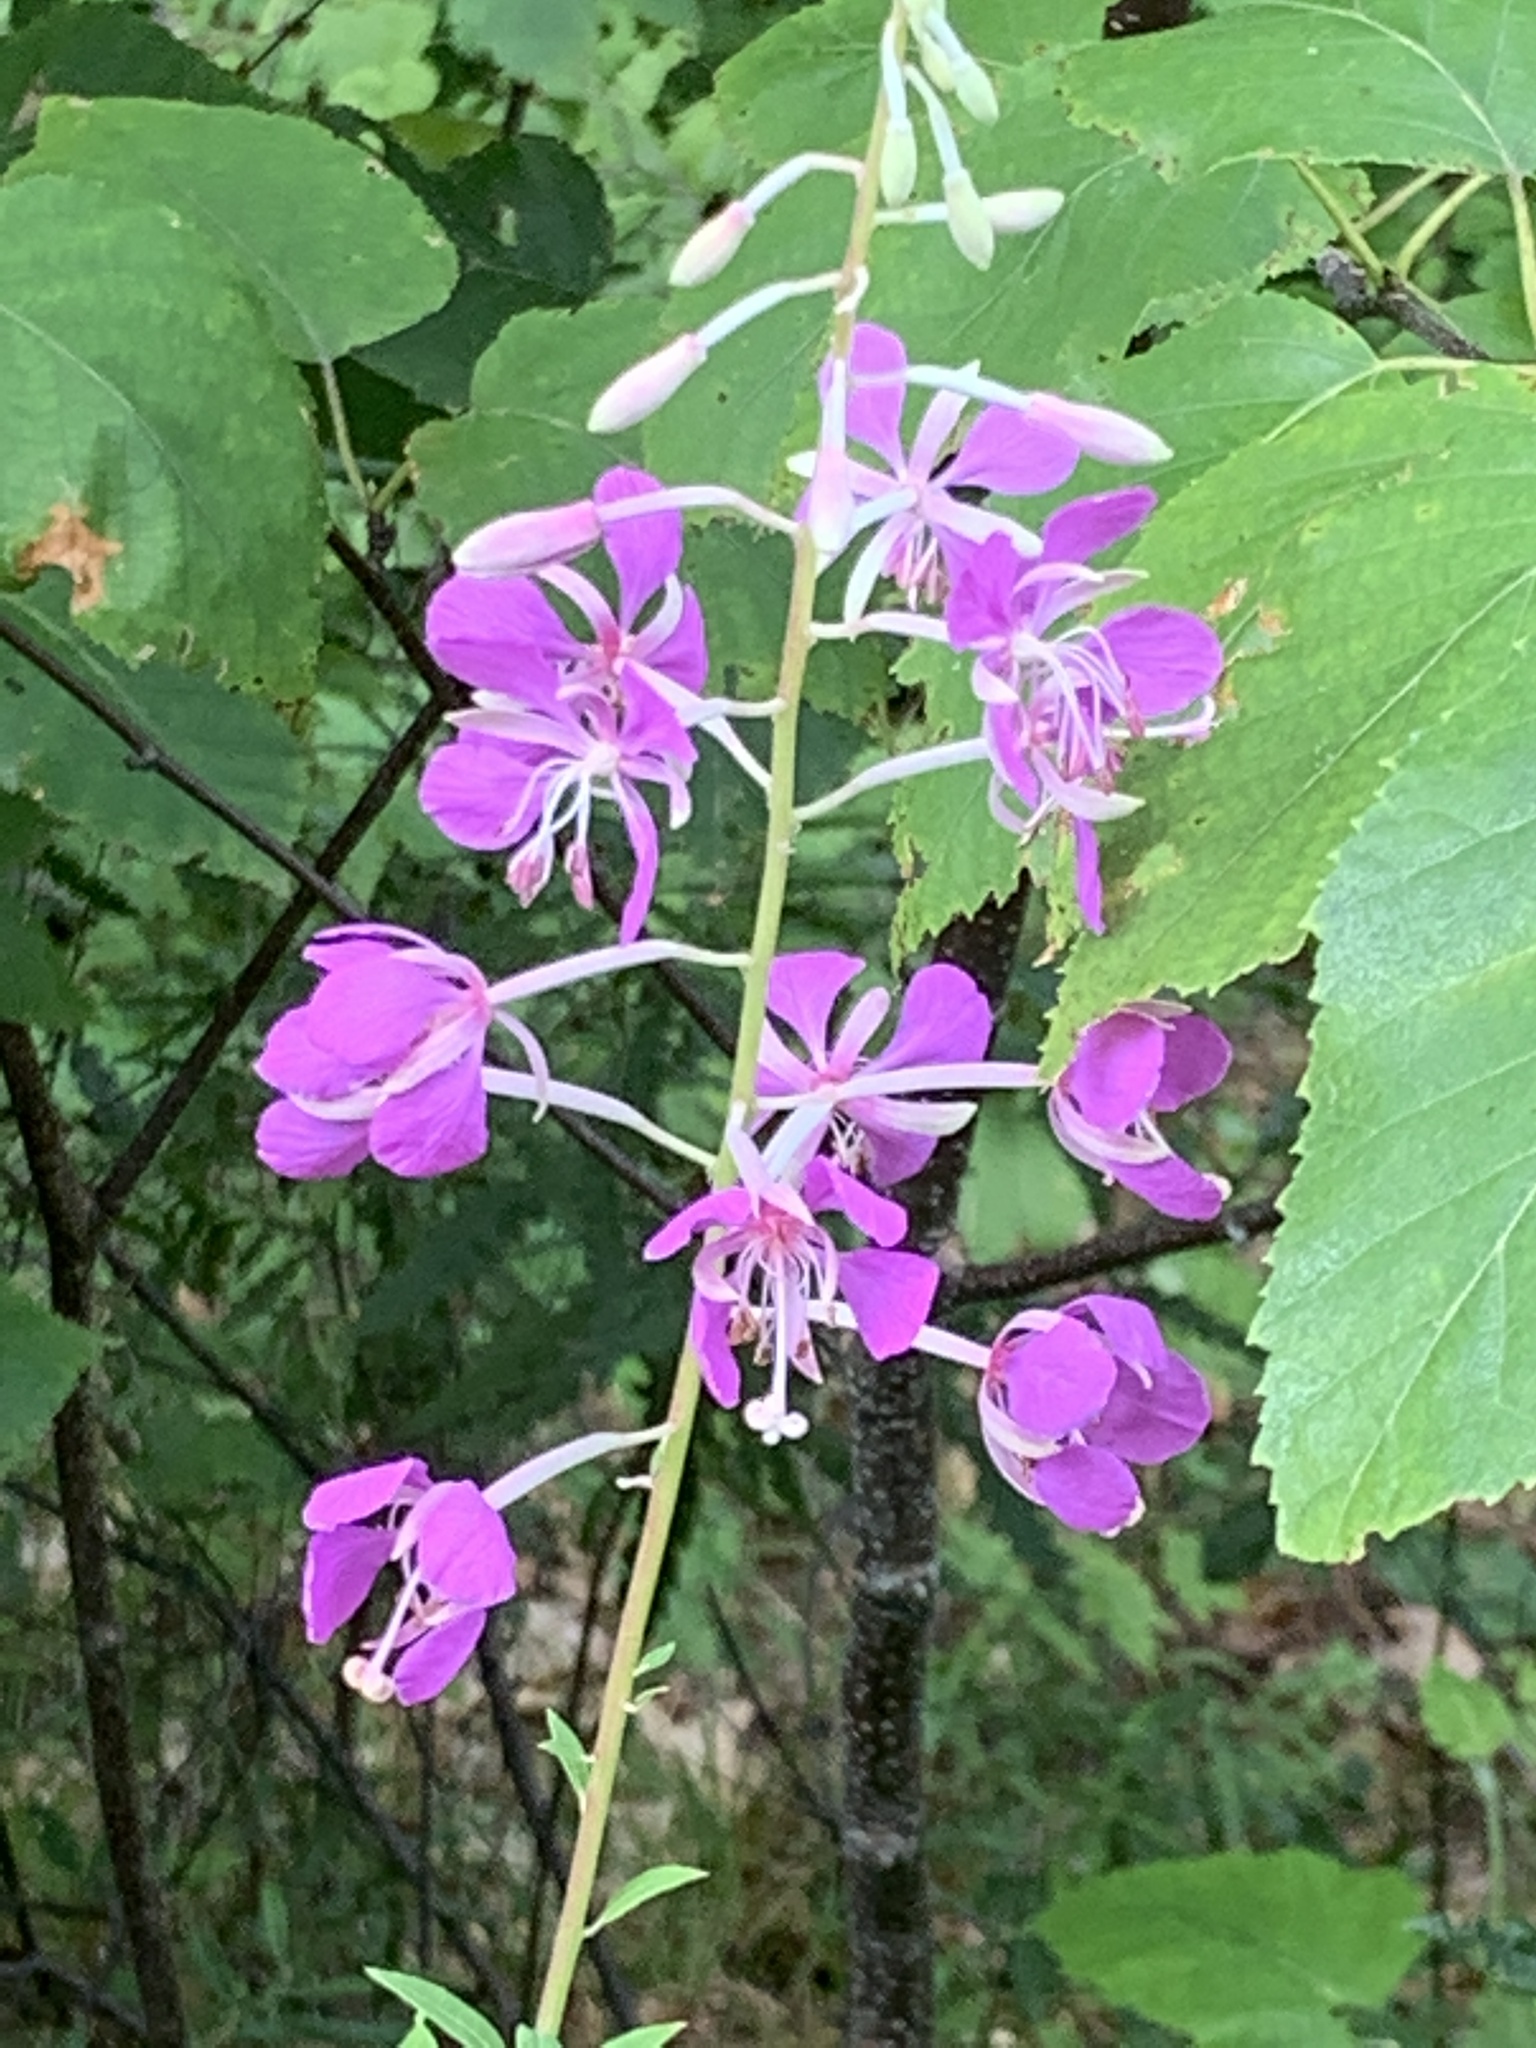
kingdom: Plantae
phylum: Tracheophyta
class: Magnoliopsida
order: Myrtales
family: Onagraceae
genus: Chamaenerion
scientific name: Chamaenerion angustifolium
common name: Fireweed
